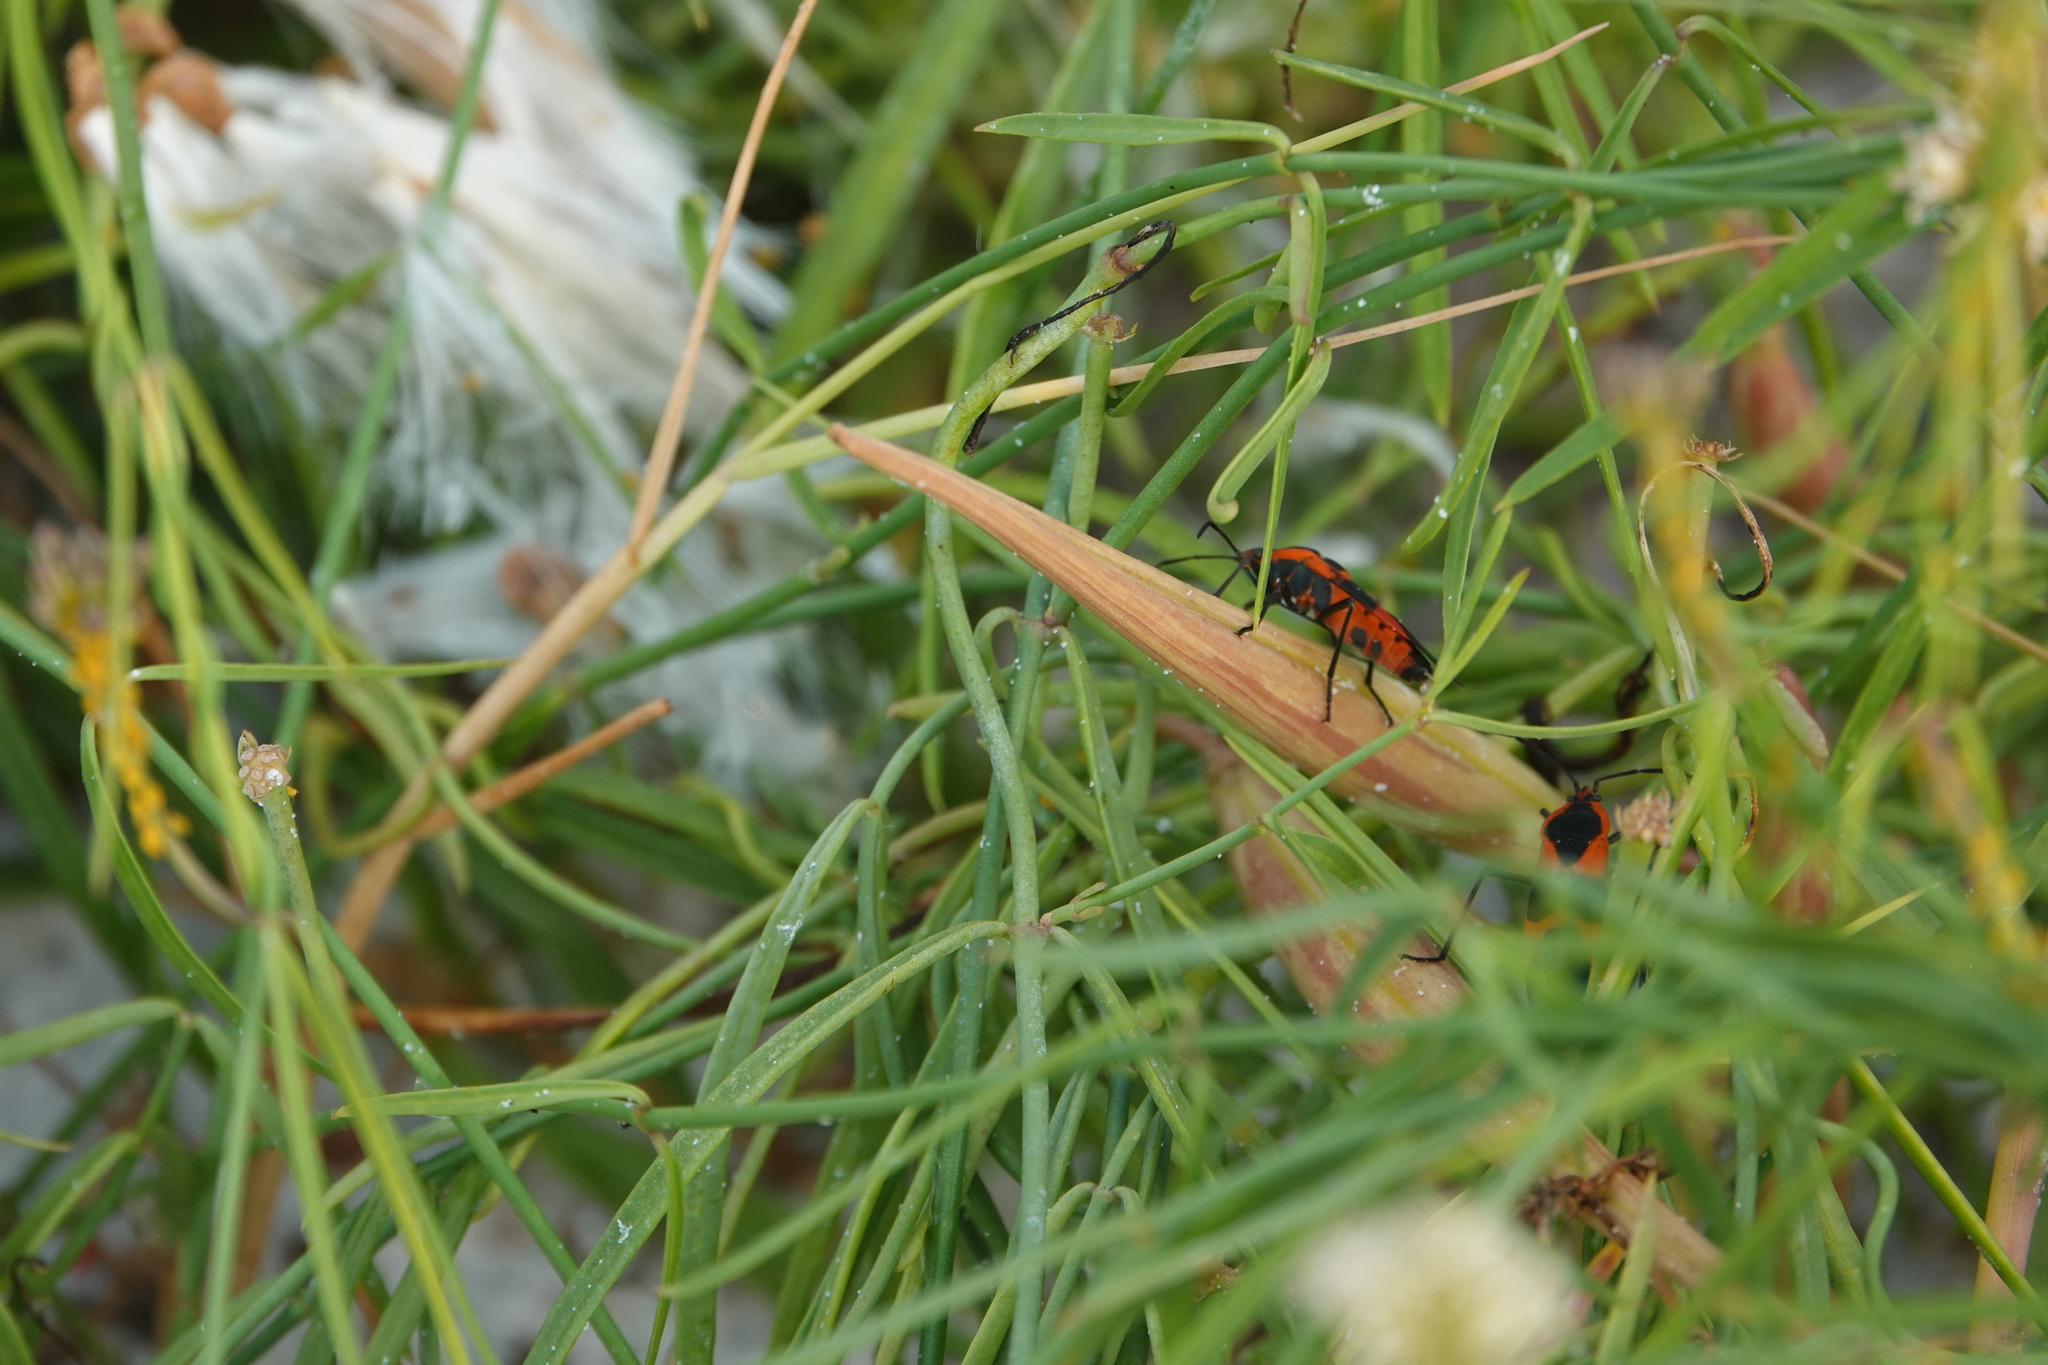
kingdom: Plantae
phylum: Tracheophyta
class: Magnoliopsida
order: Gentianales
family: Apocynaceae
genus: Pattalias
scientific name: Pattalias
